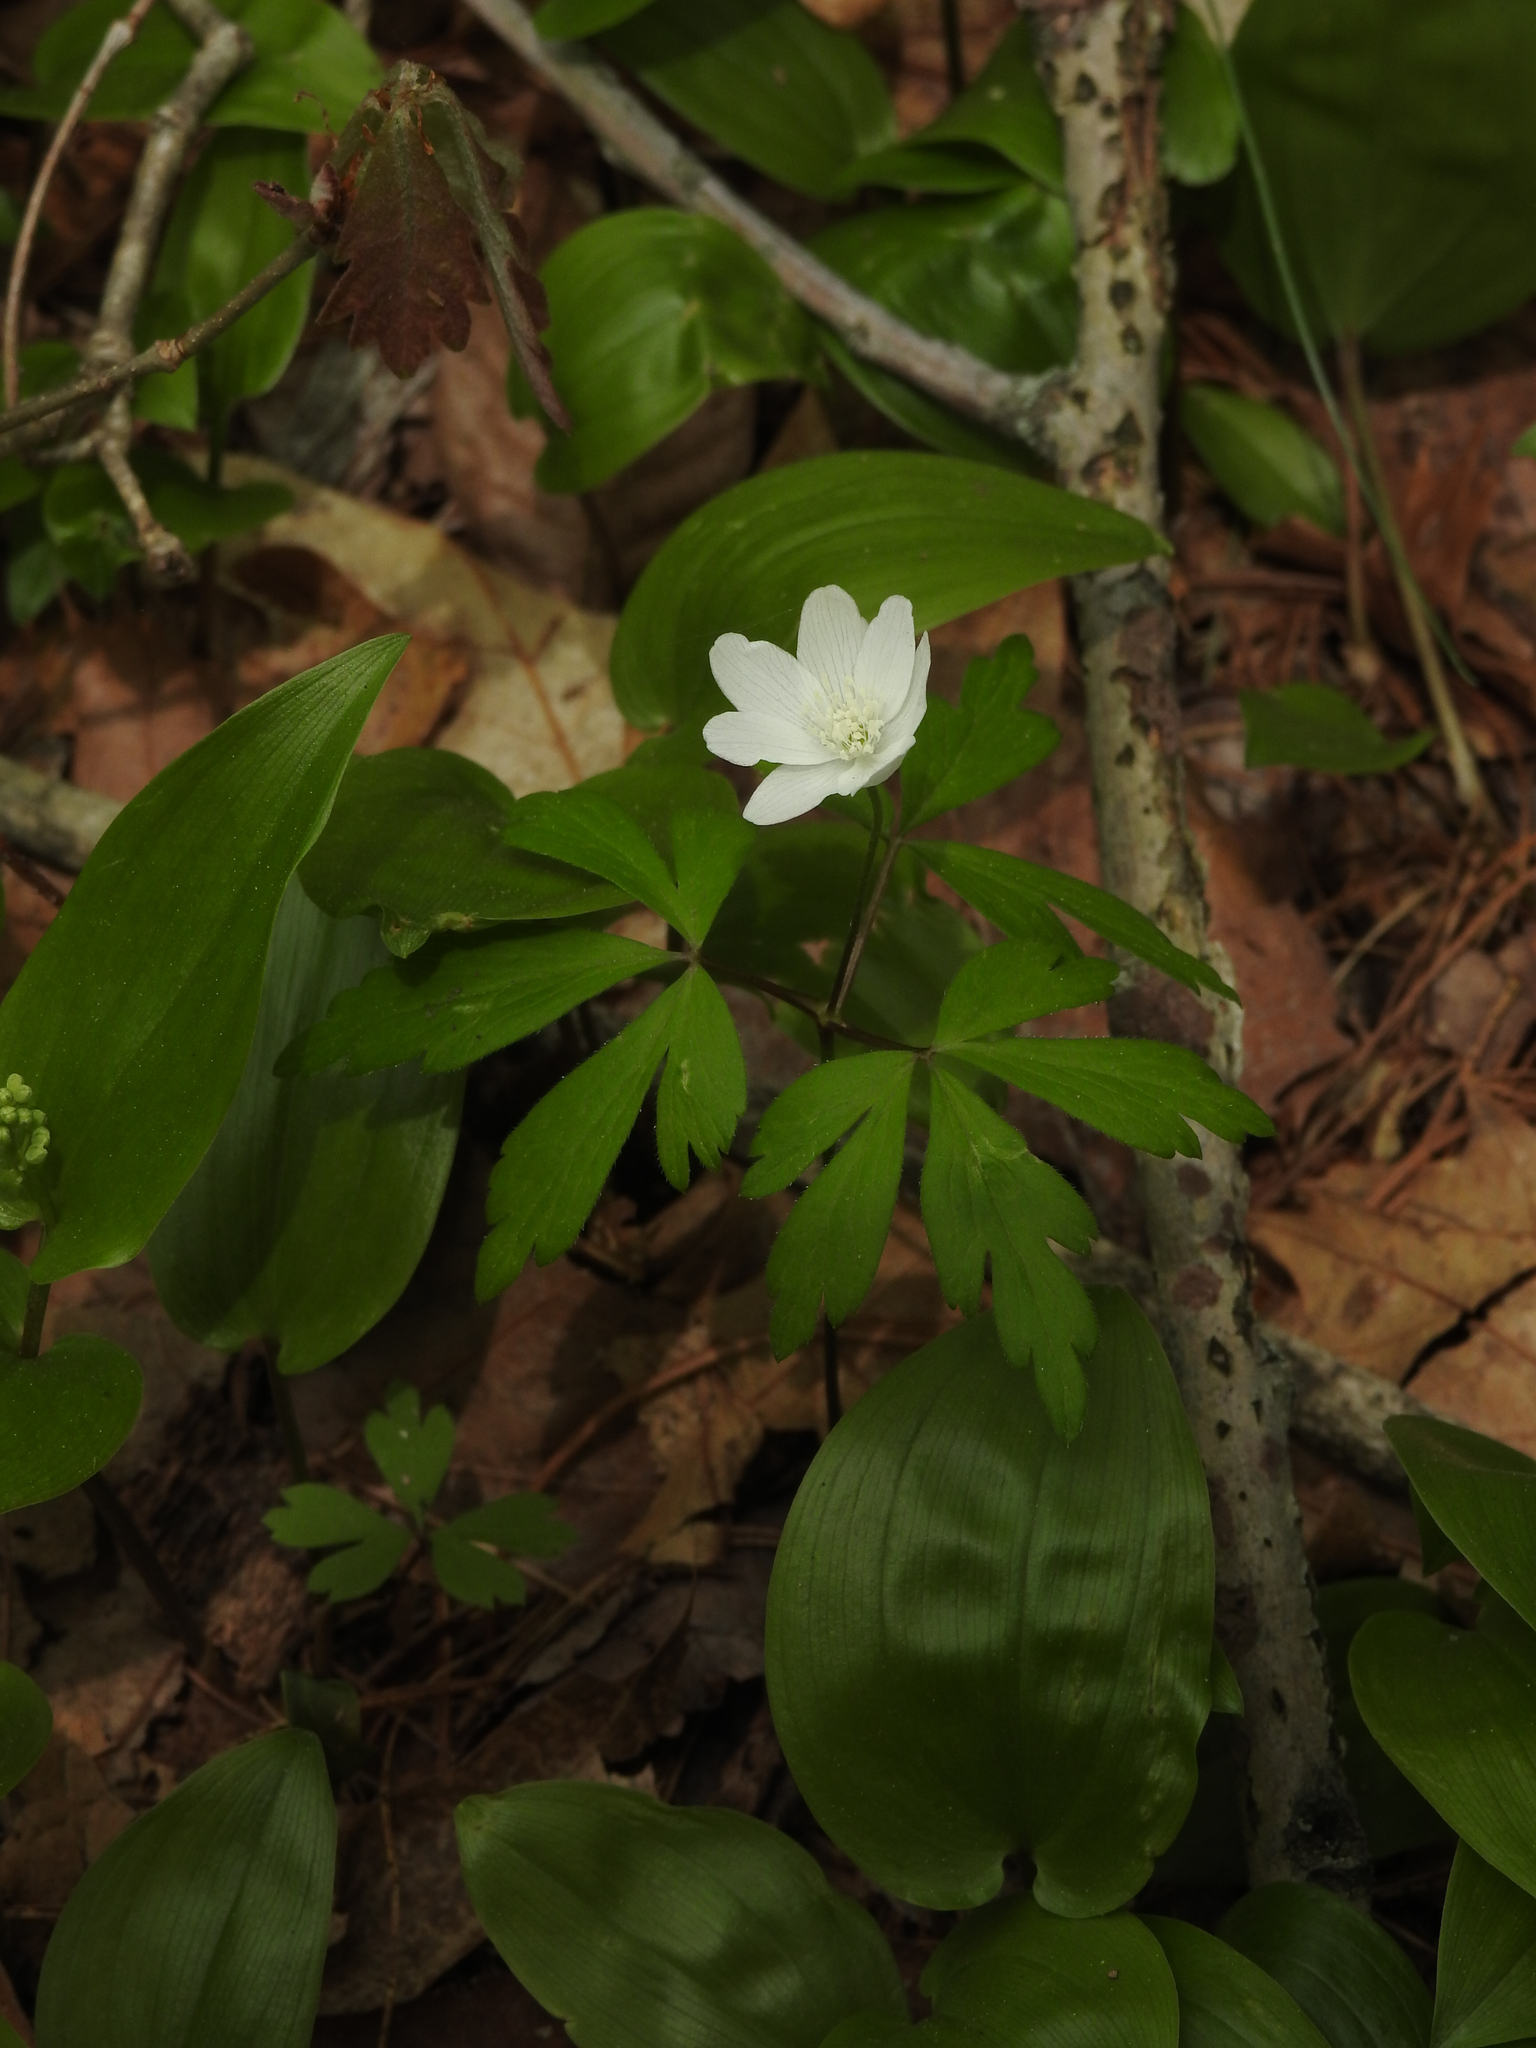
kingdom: Plantae
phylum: Tracheophyta
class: Magnoliopsida
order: Ranunculales
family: Ranunculaceae
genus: Anemone
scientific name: Anemone quinquefolia
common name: Wood anemone
